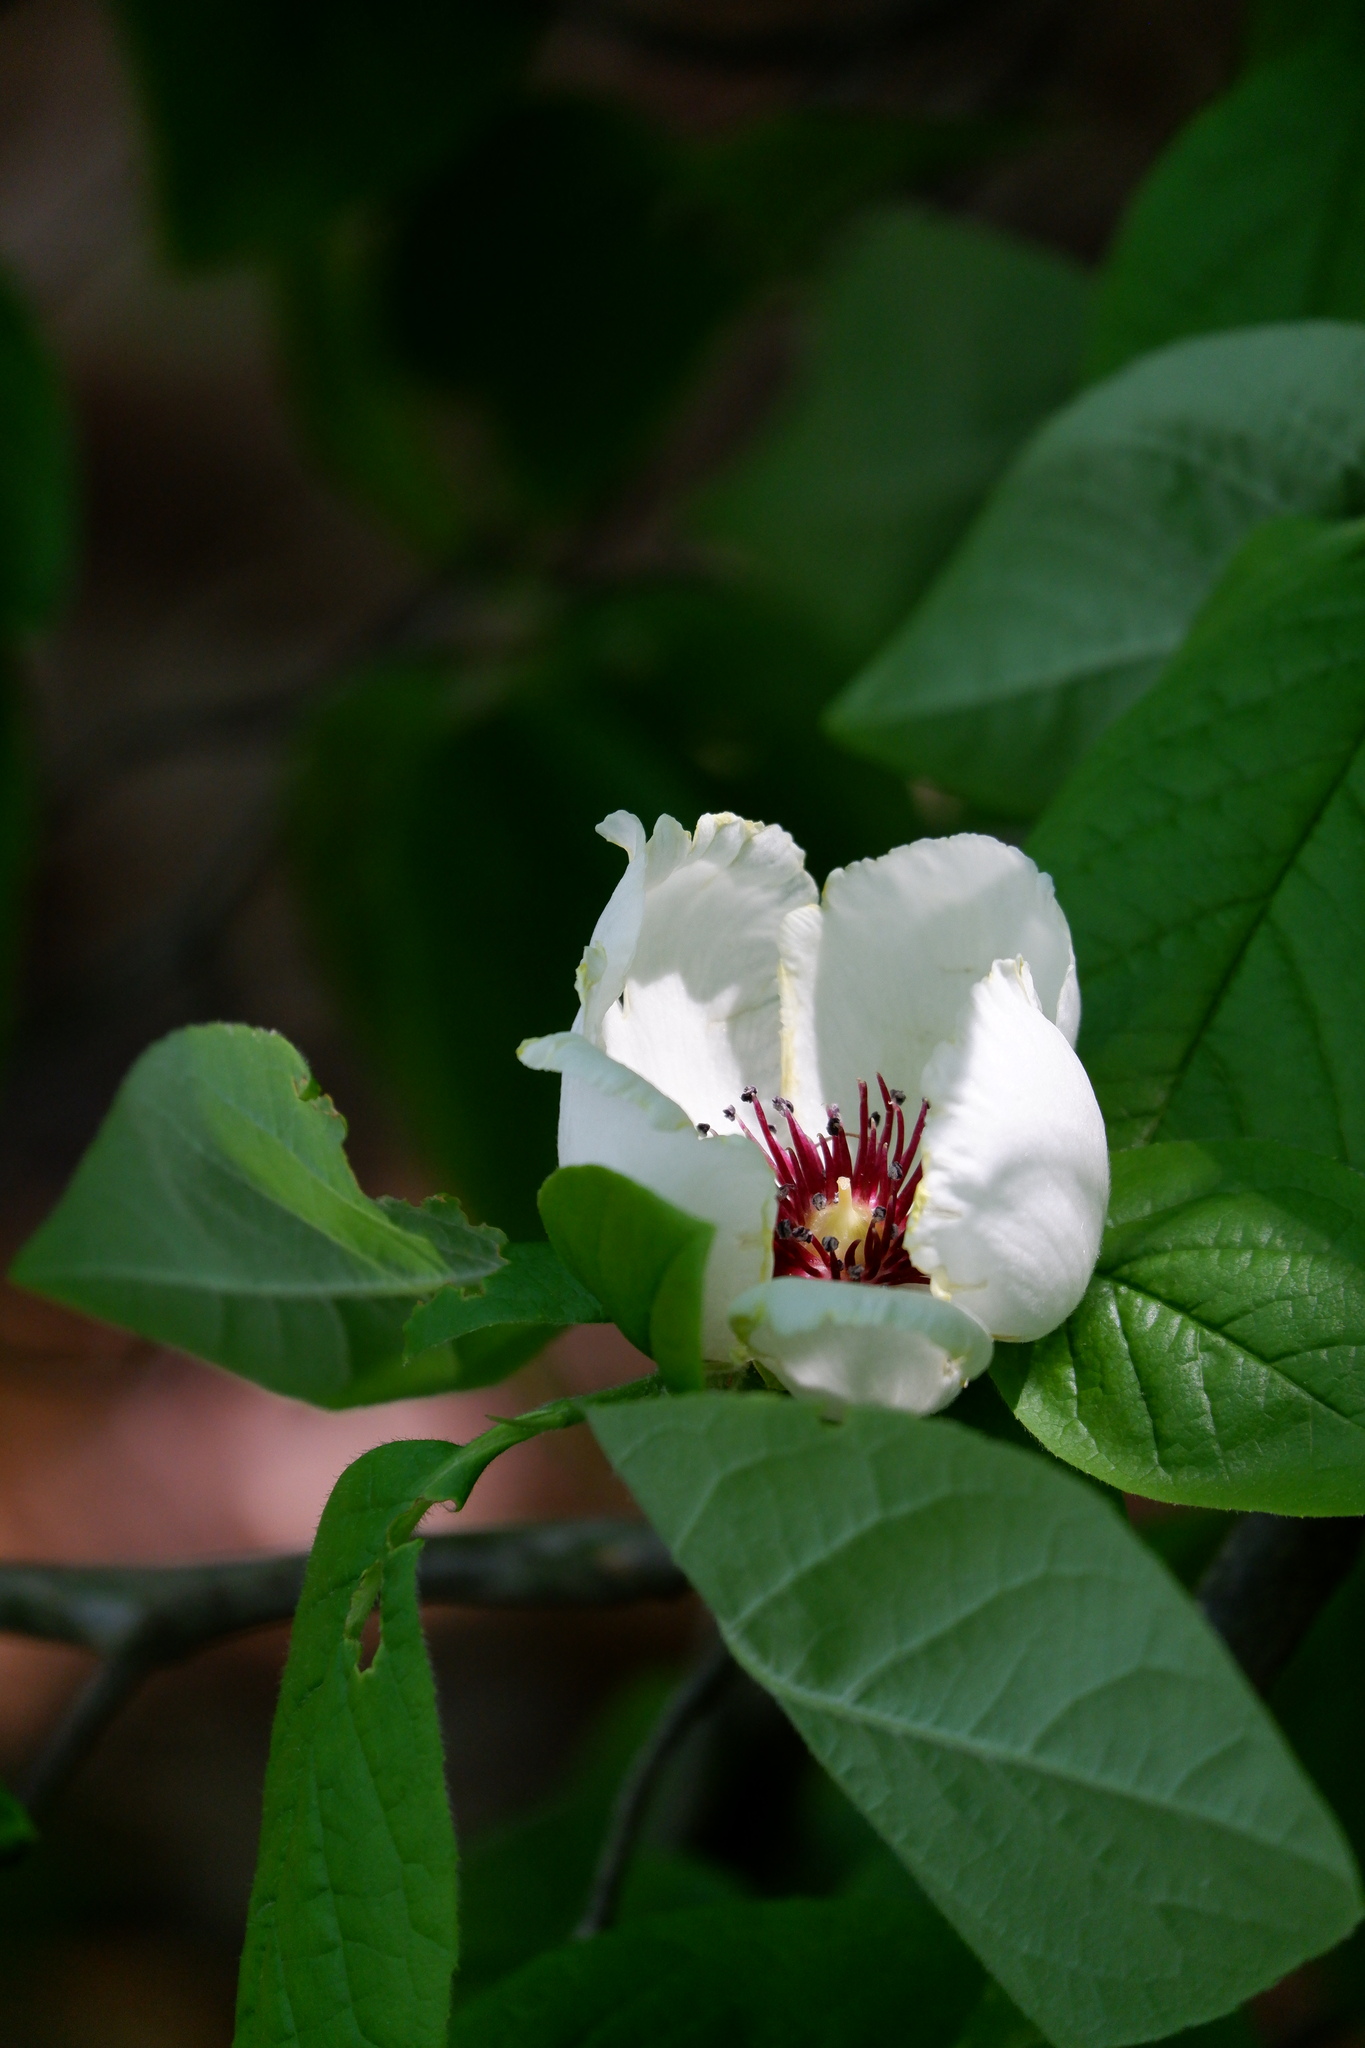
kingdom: Plantae
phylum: Tracheophyta
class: Magnoliopsida
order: Ericales
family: Theaceae
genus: Stewartia
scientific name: Stewartia malacodendron
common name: Virginia stewartia
